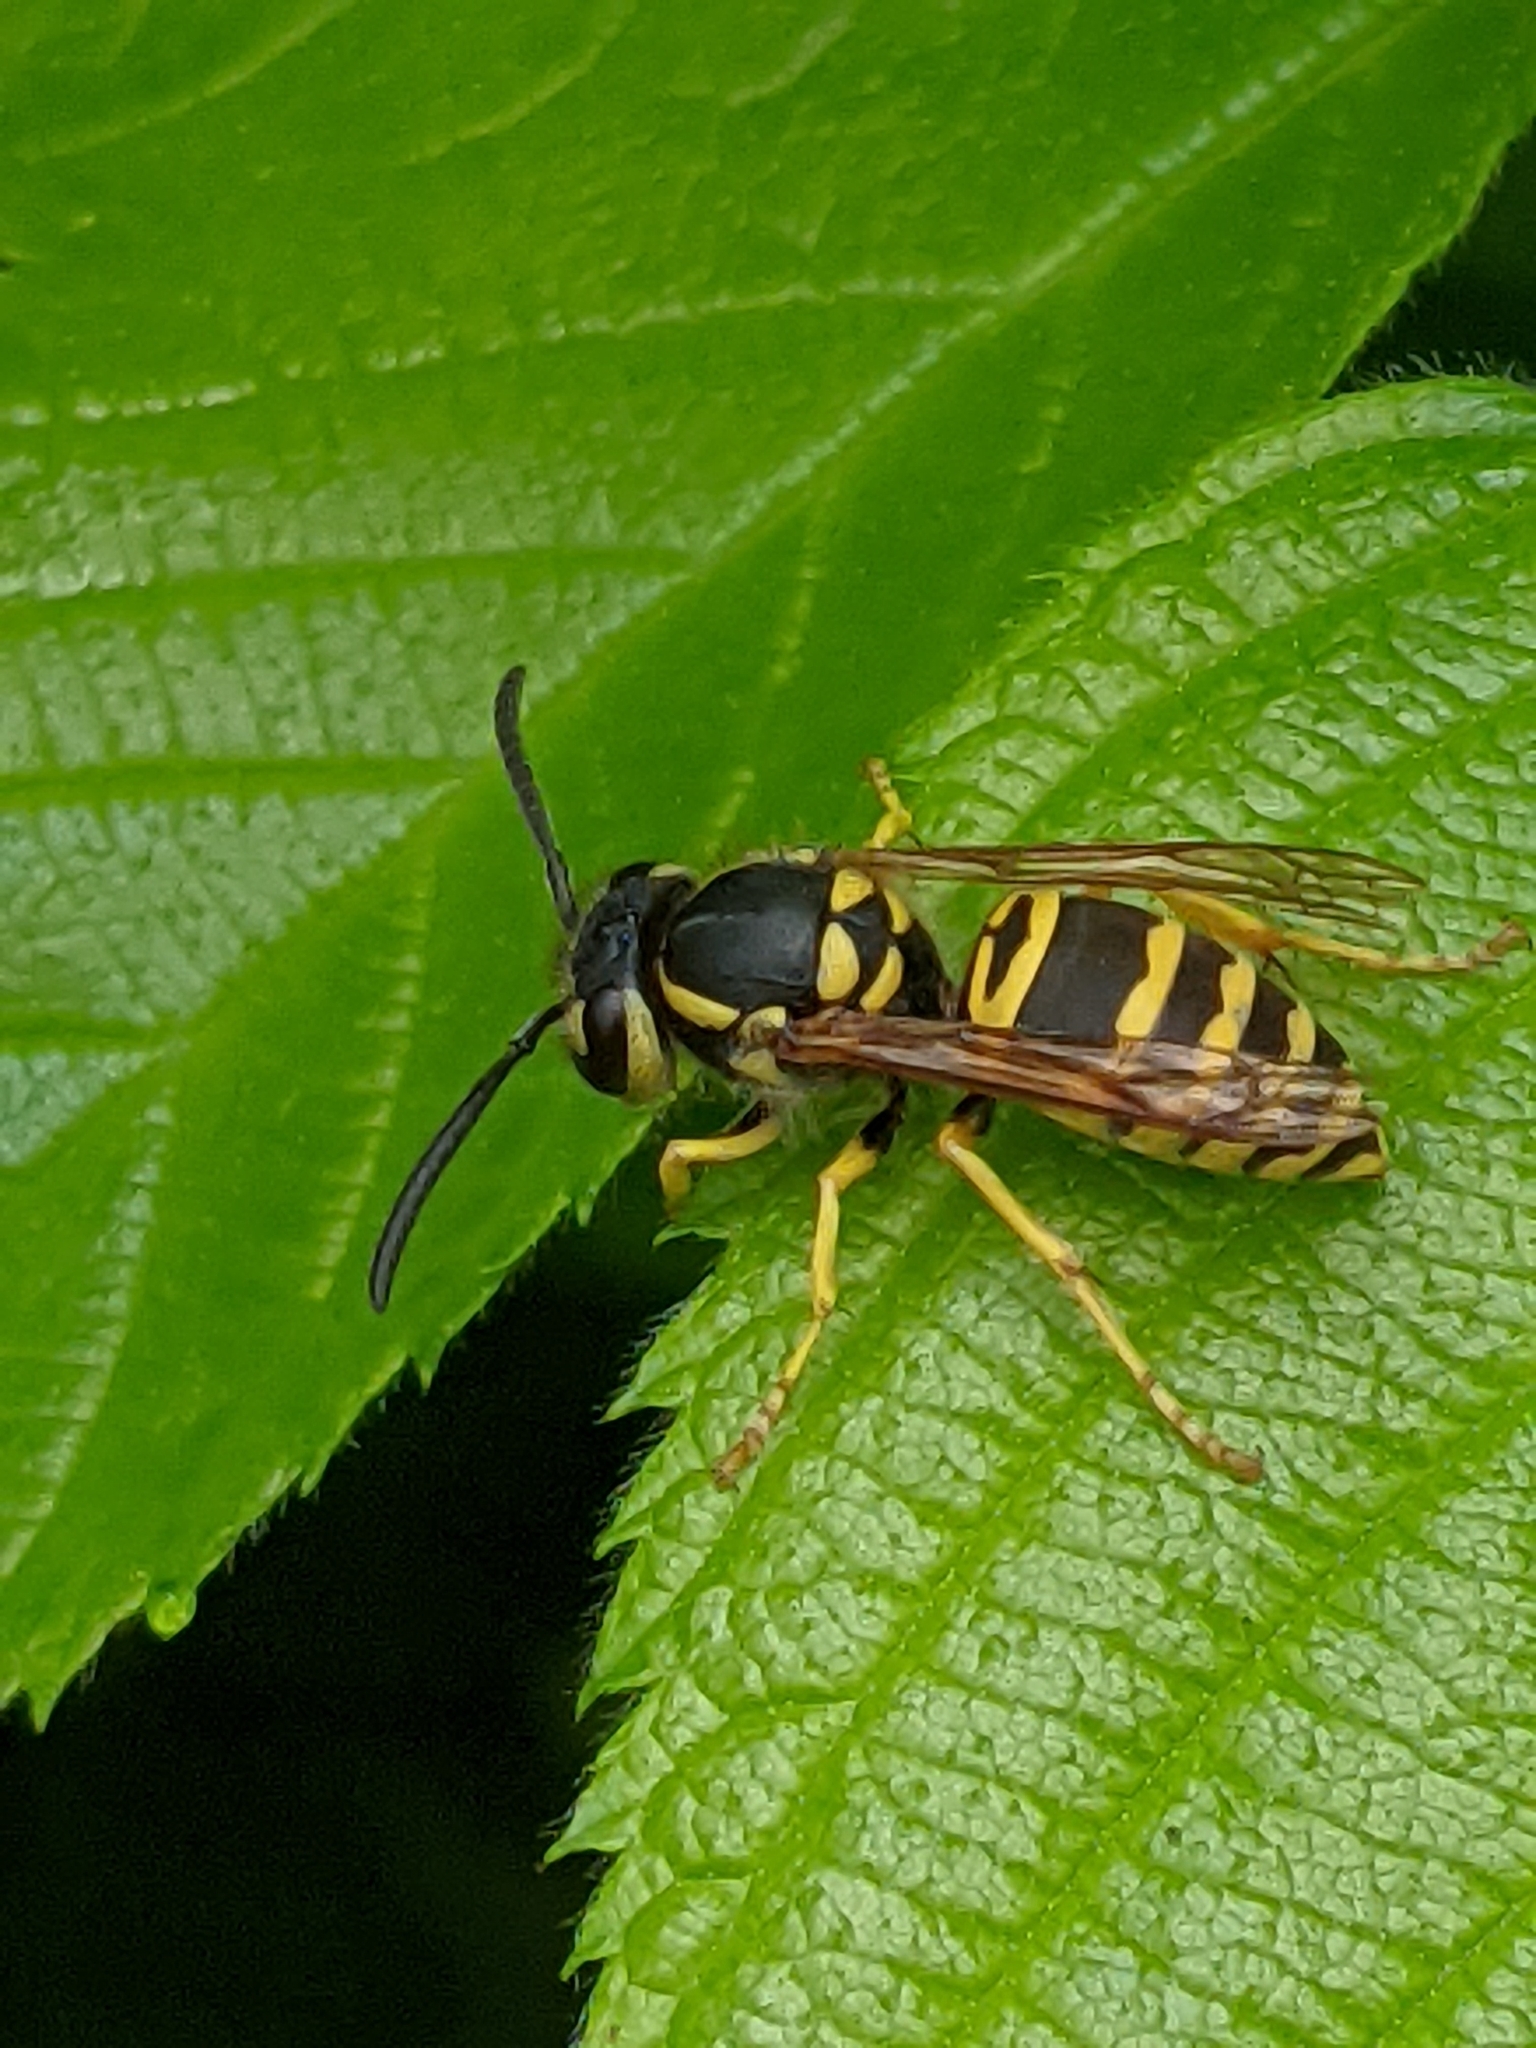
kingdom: Animalia
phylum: Arthropoda
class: Insecta
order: Hymenoptera
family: Vespidae
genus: Vespula
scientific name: Vespula maculifrons
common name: Eastern yellowjacket
